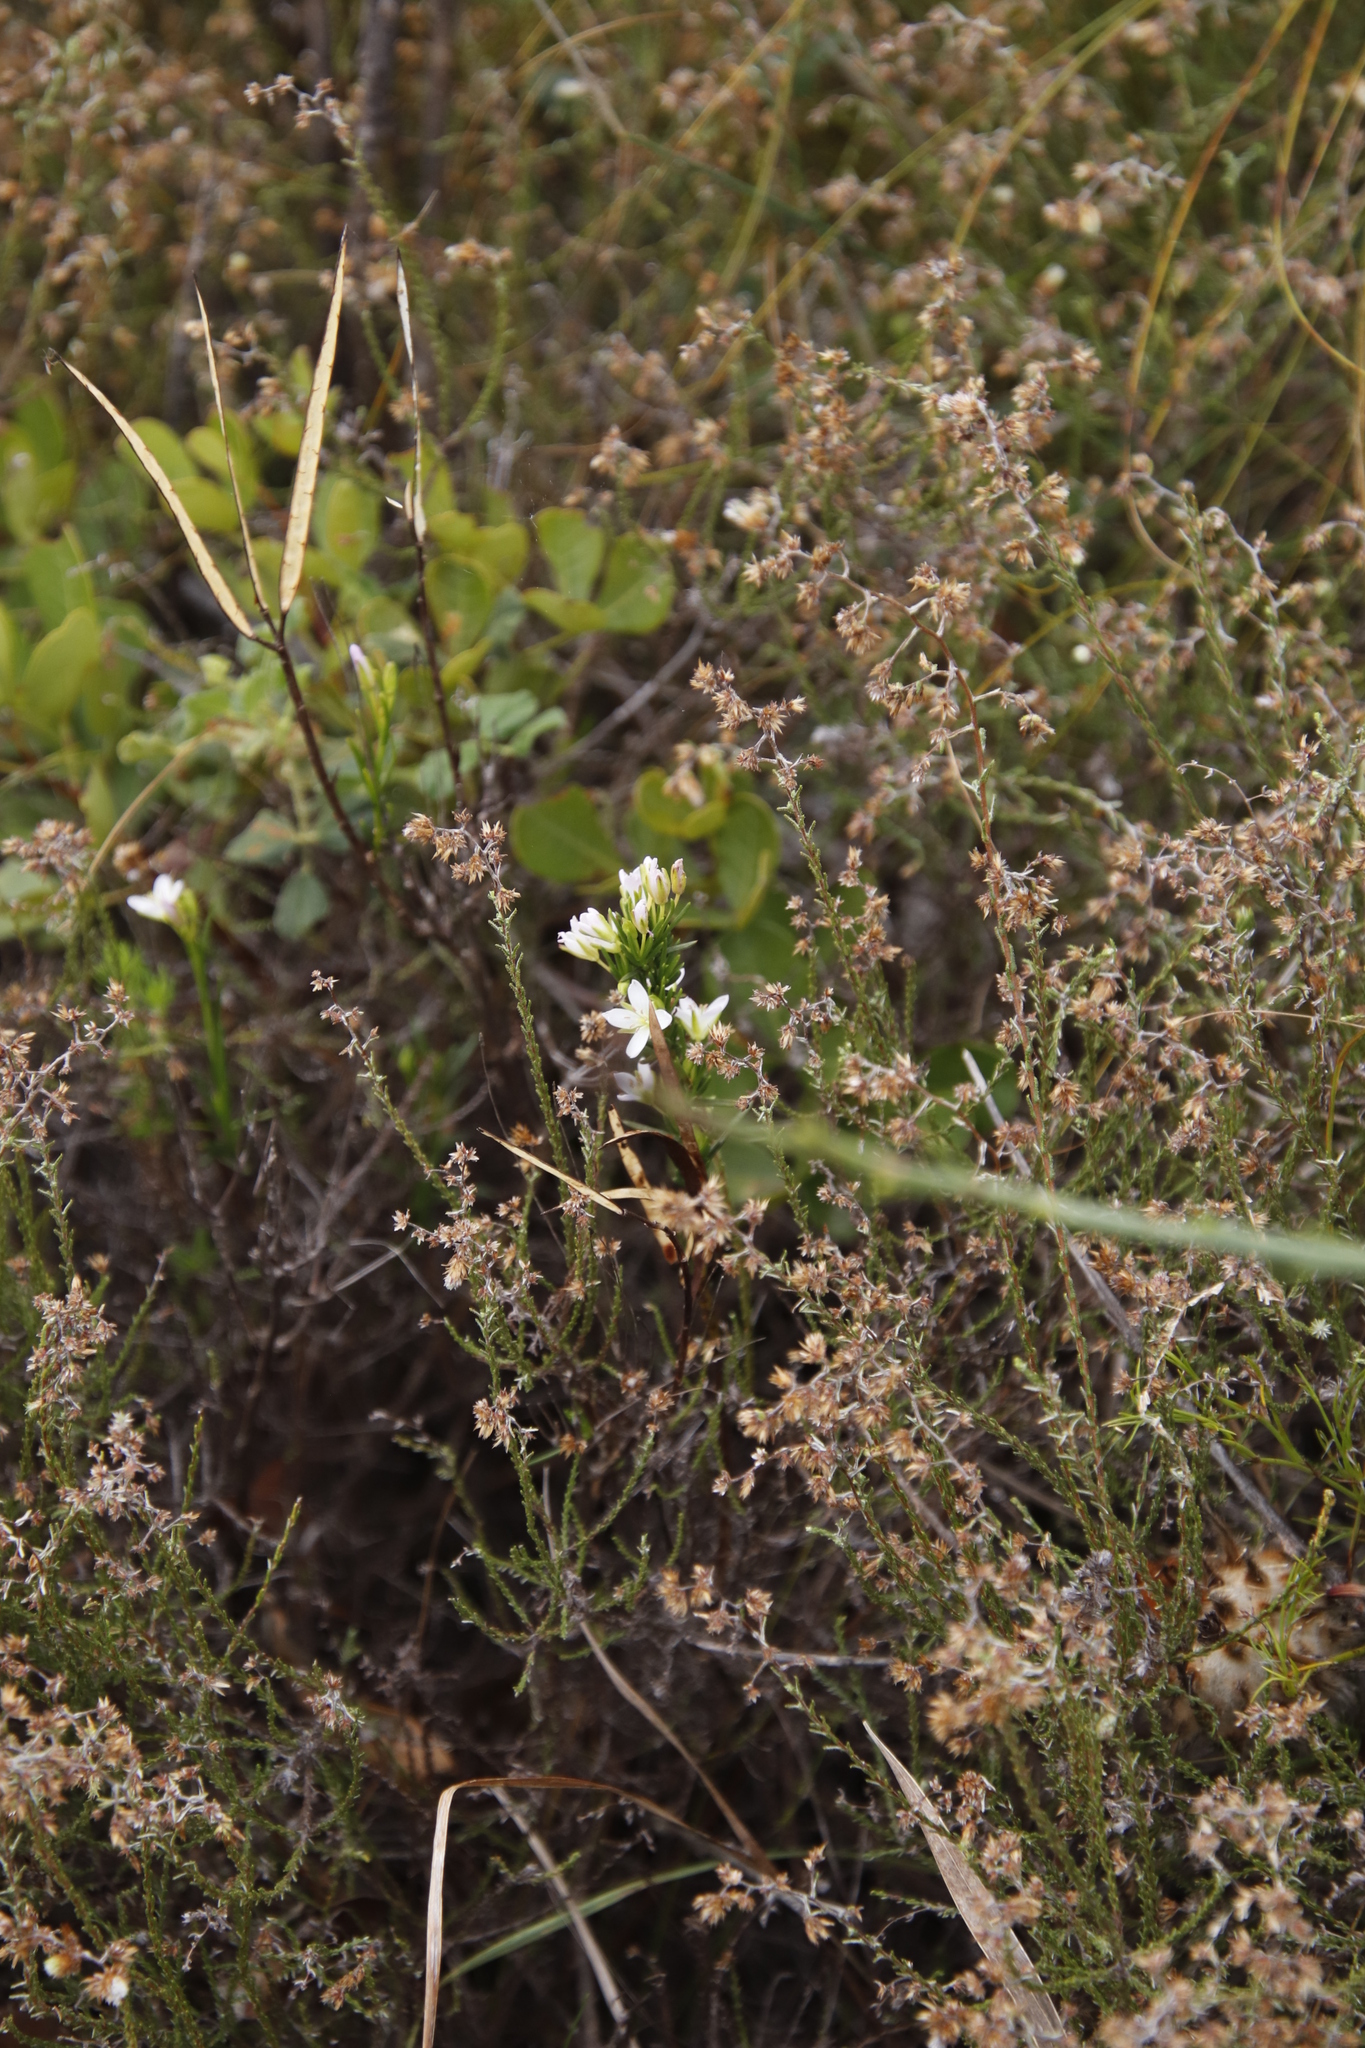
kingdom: Plantae
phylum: Tracheophyta
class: Magnoliopsida
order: Brassicales
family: Brassicaceae
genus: Heliophila
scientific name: Heliophila scoparia
